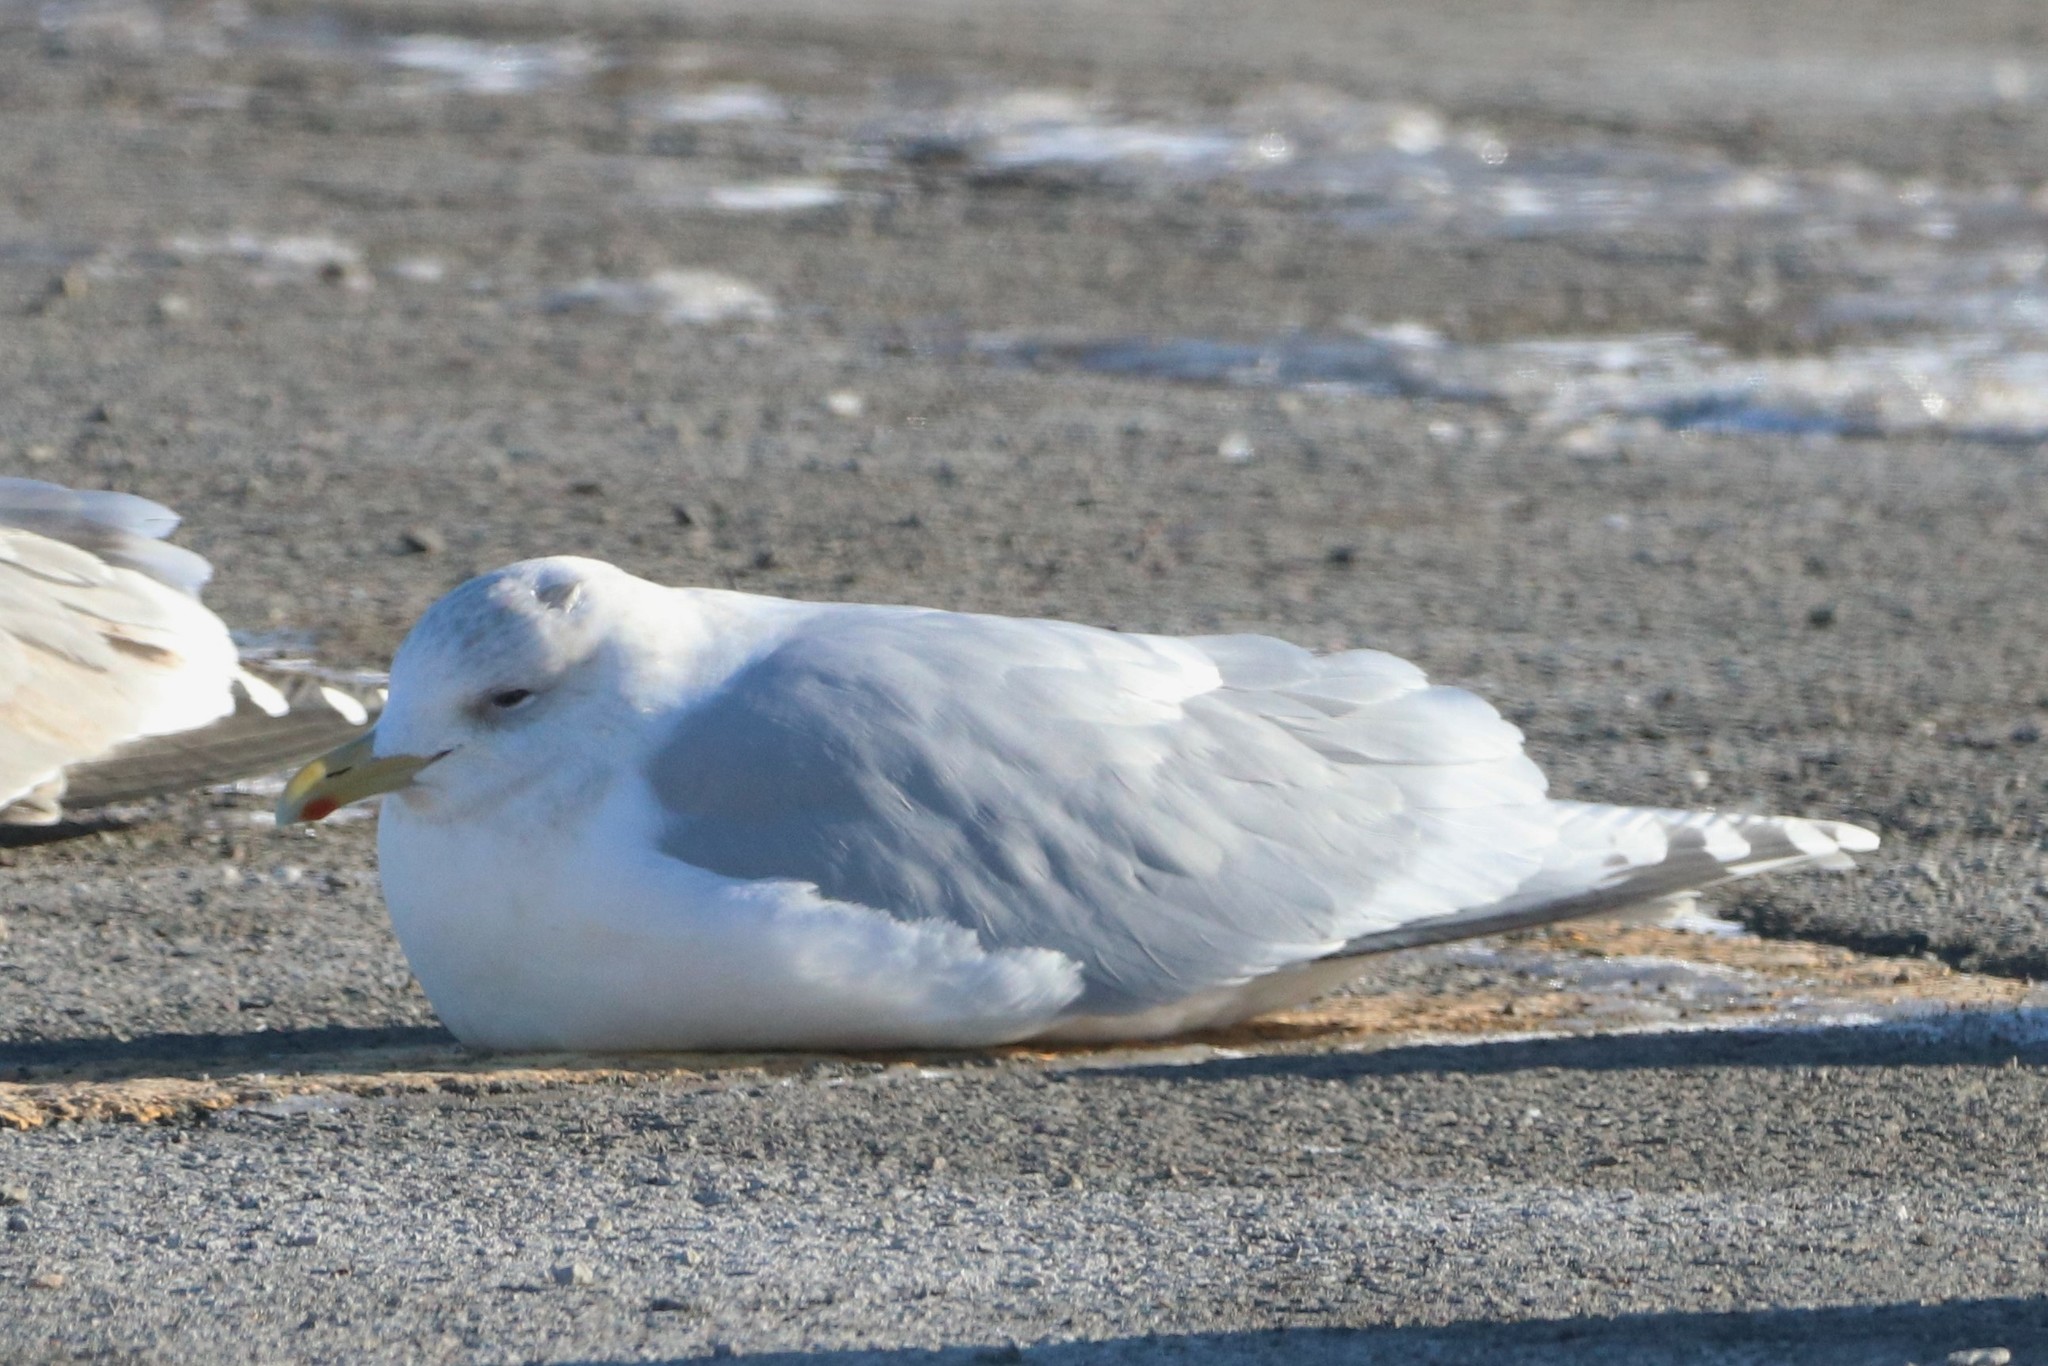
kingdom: Animalia
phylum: Chordata
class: Aves
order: Charadriiformes
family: Laridae
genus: Larus
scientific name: Larus glaucoides
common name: Iceland gull
